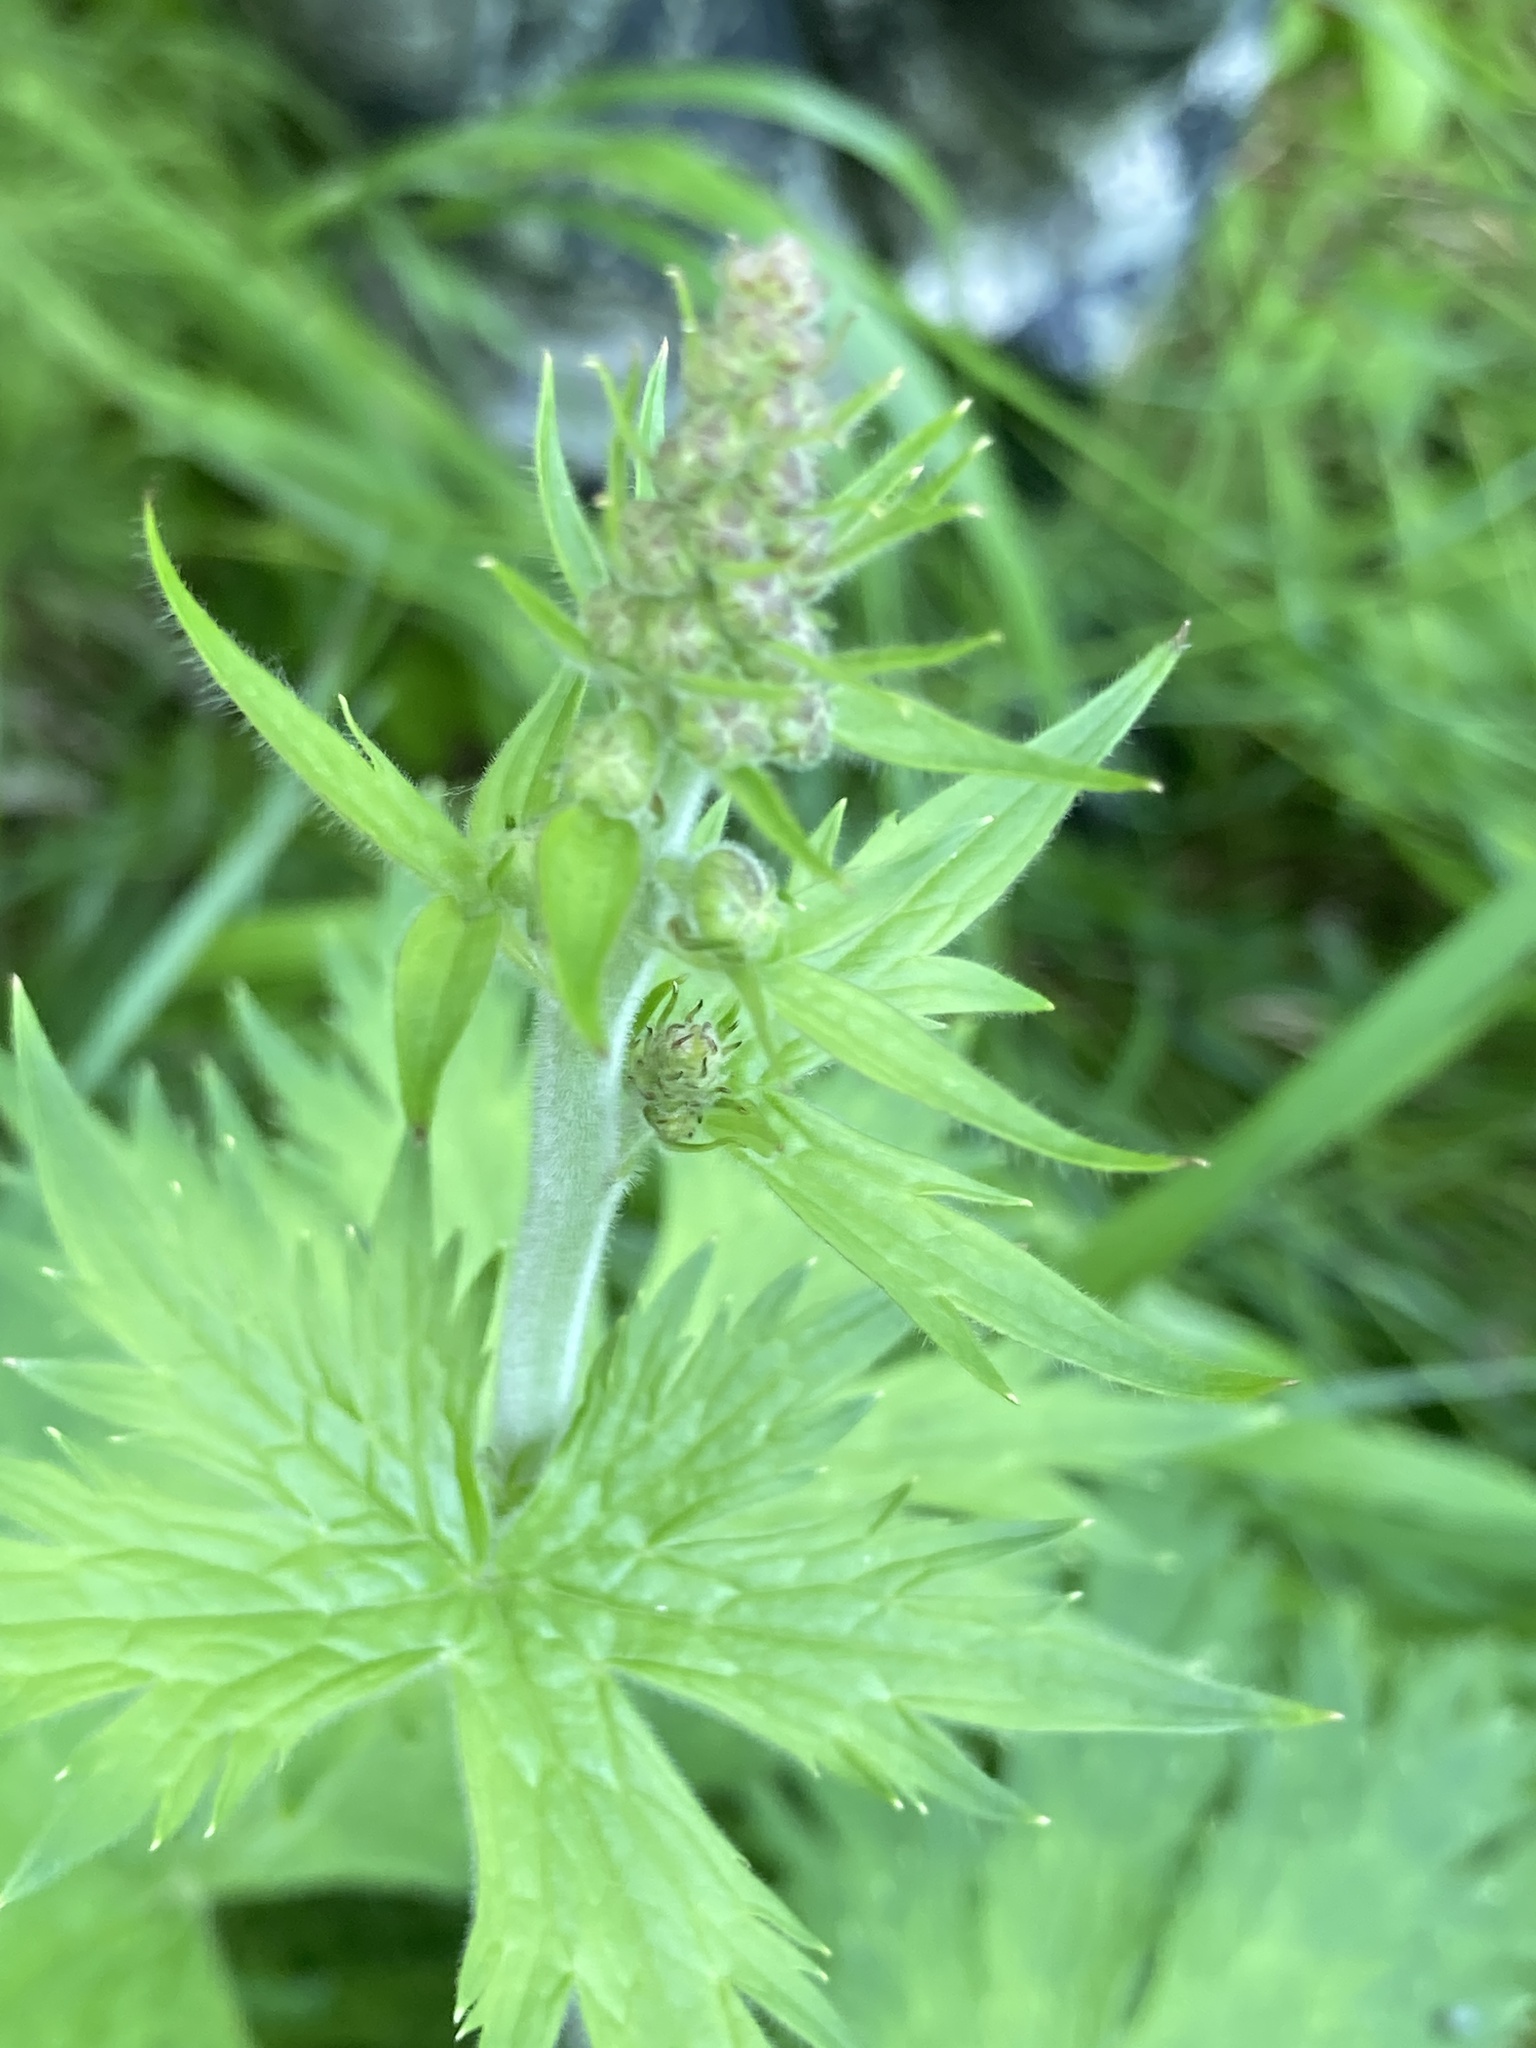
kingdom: Plantae
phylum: Tracheophyta
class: Magnoliopsida
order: Ranunculales
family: Ranunculaceae
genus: Aconitum
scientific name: Aconitum septentrionale
